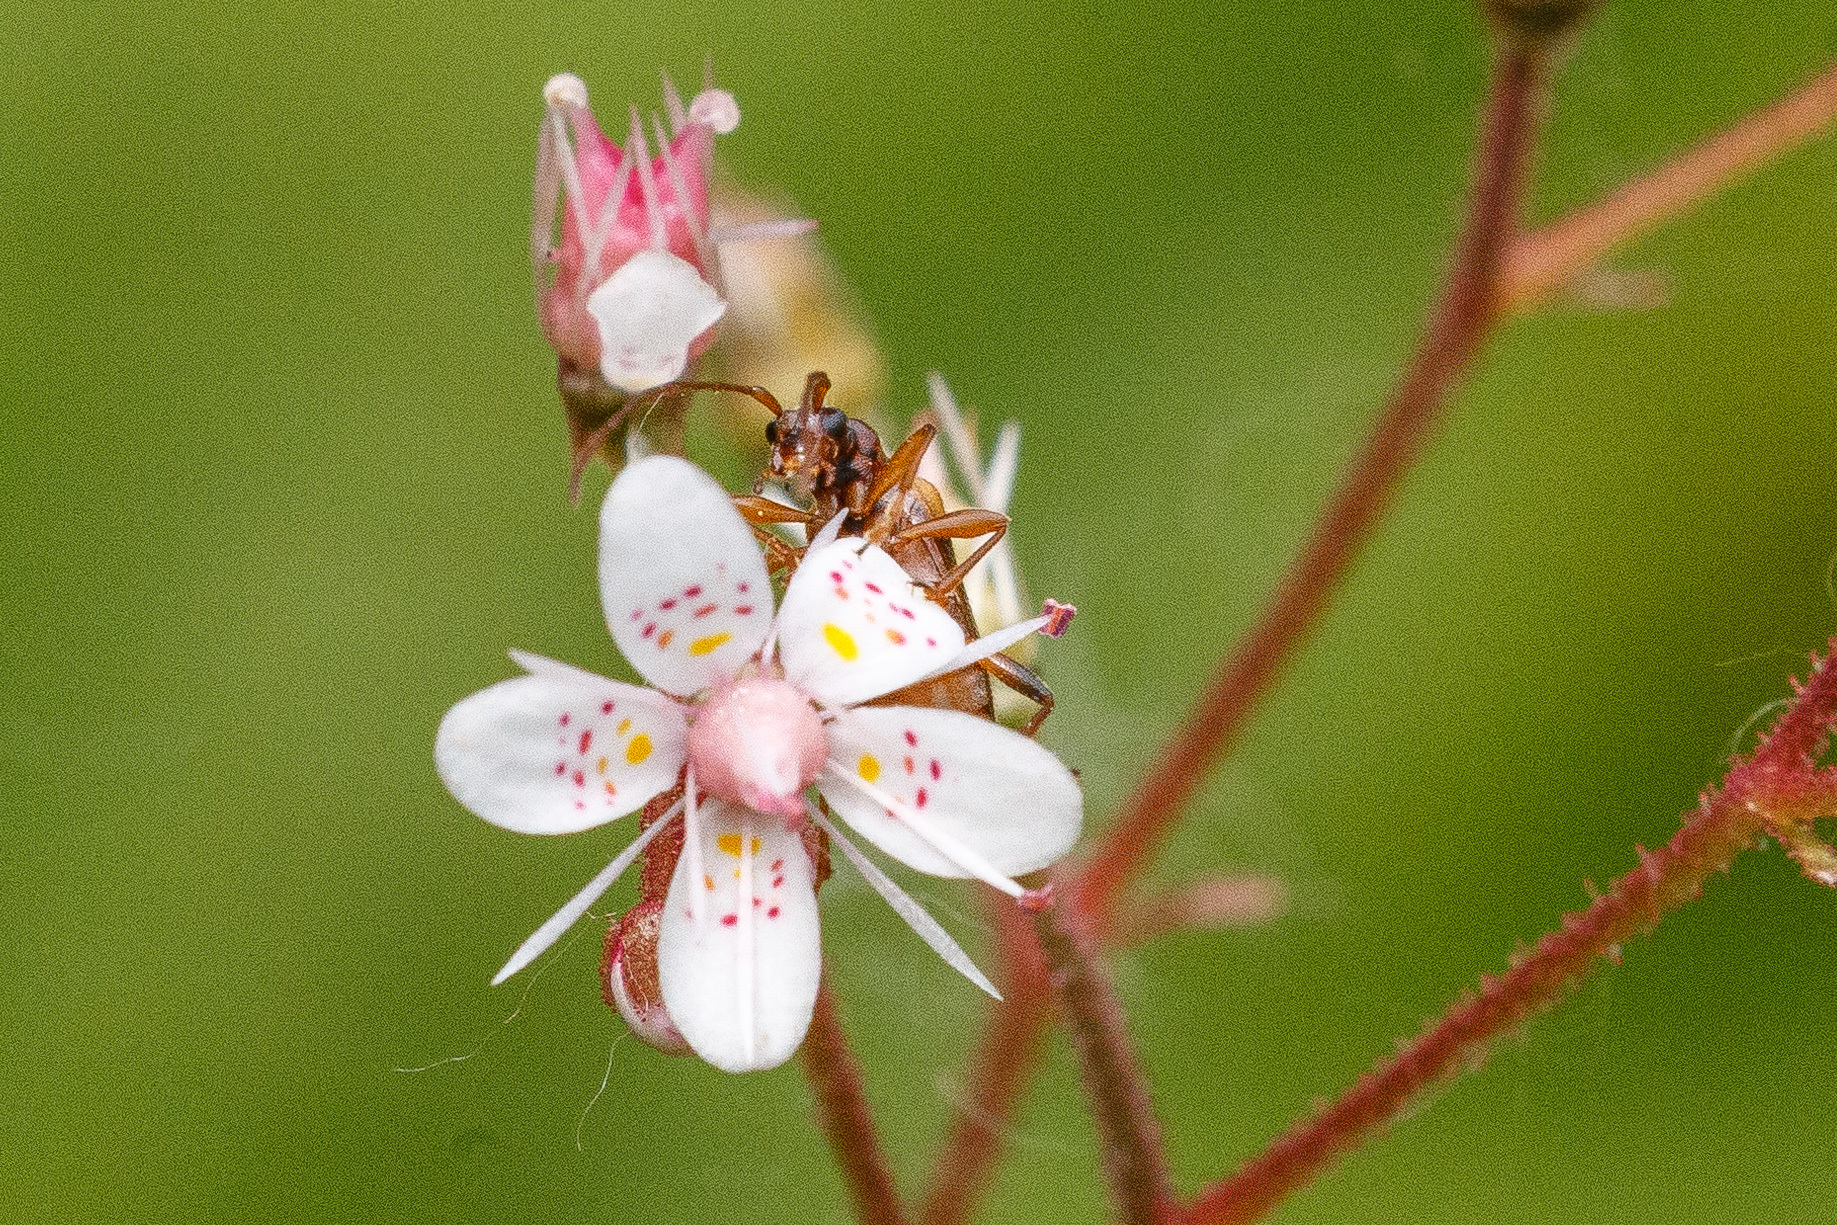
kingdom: Animalia
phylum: Arthropoda
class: Insecta
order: Coleoptera
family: Cerambycidae
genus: Pidonia
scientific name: Pidonia scripta
